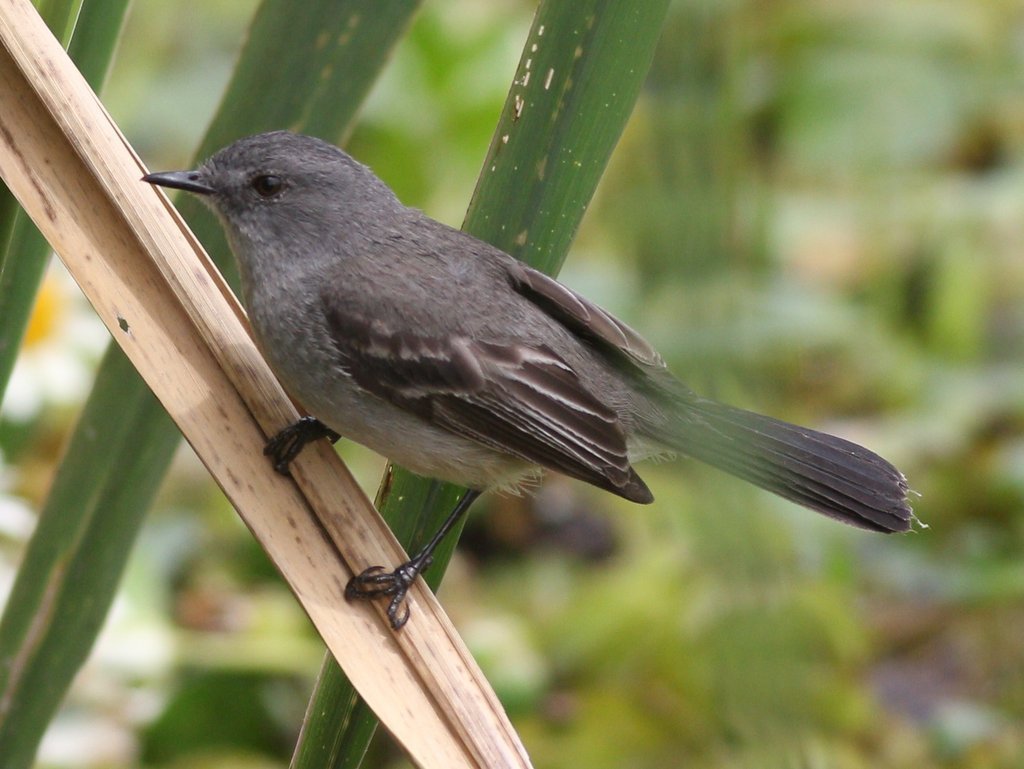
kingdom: Animalia
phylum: Chordata
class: Aves
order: Passeriformes
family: Tyrannidae
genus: Serpophaga
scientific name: Serpophaga nigricans
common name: Sooty tyrannulet
